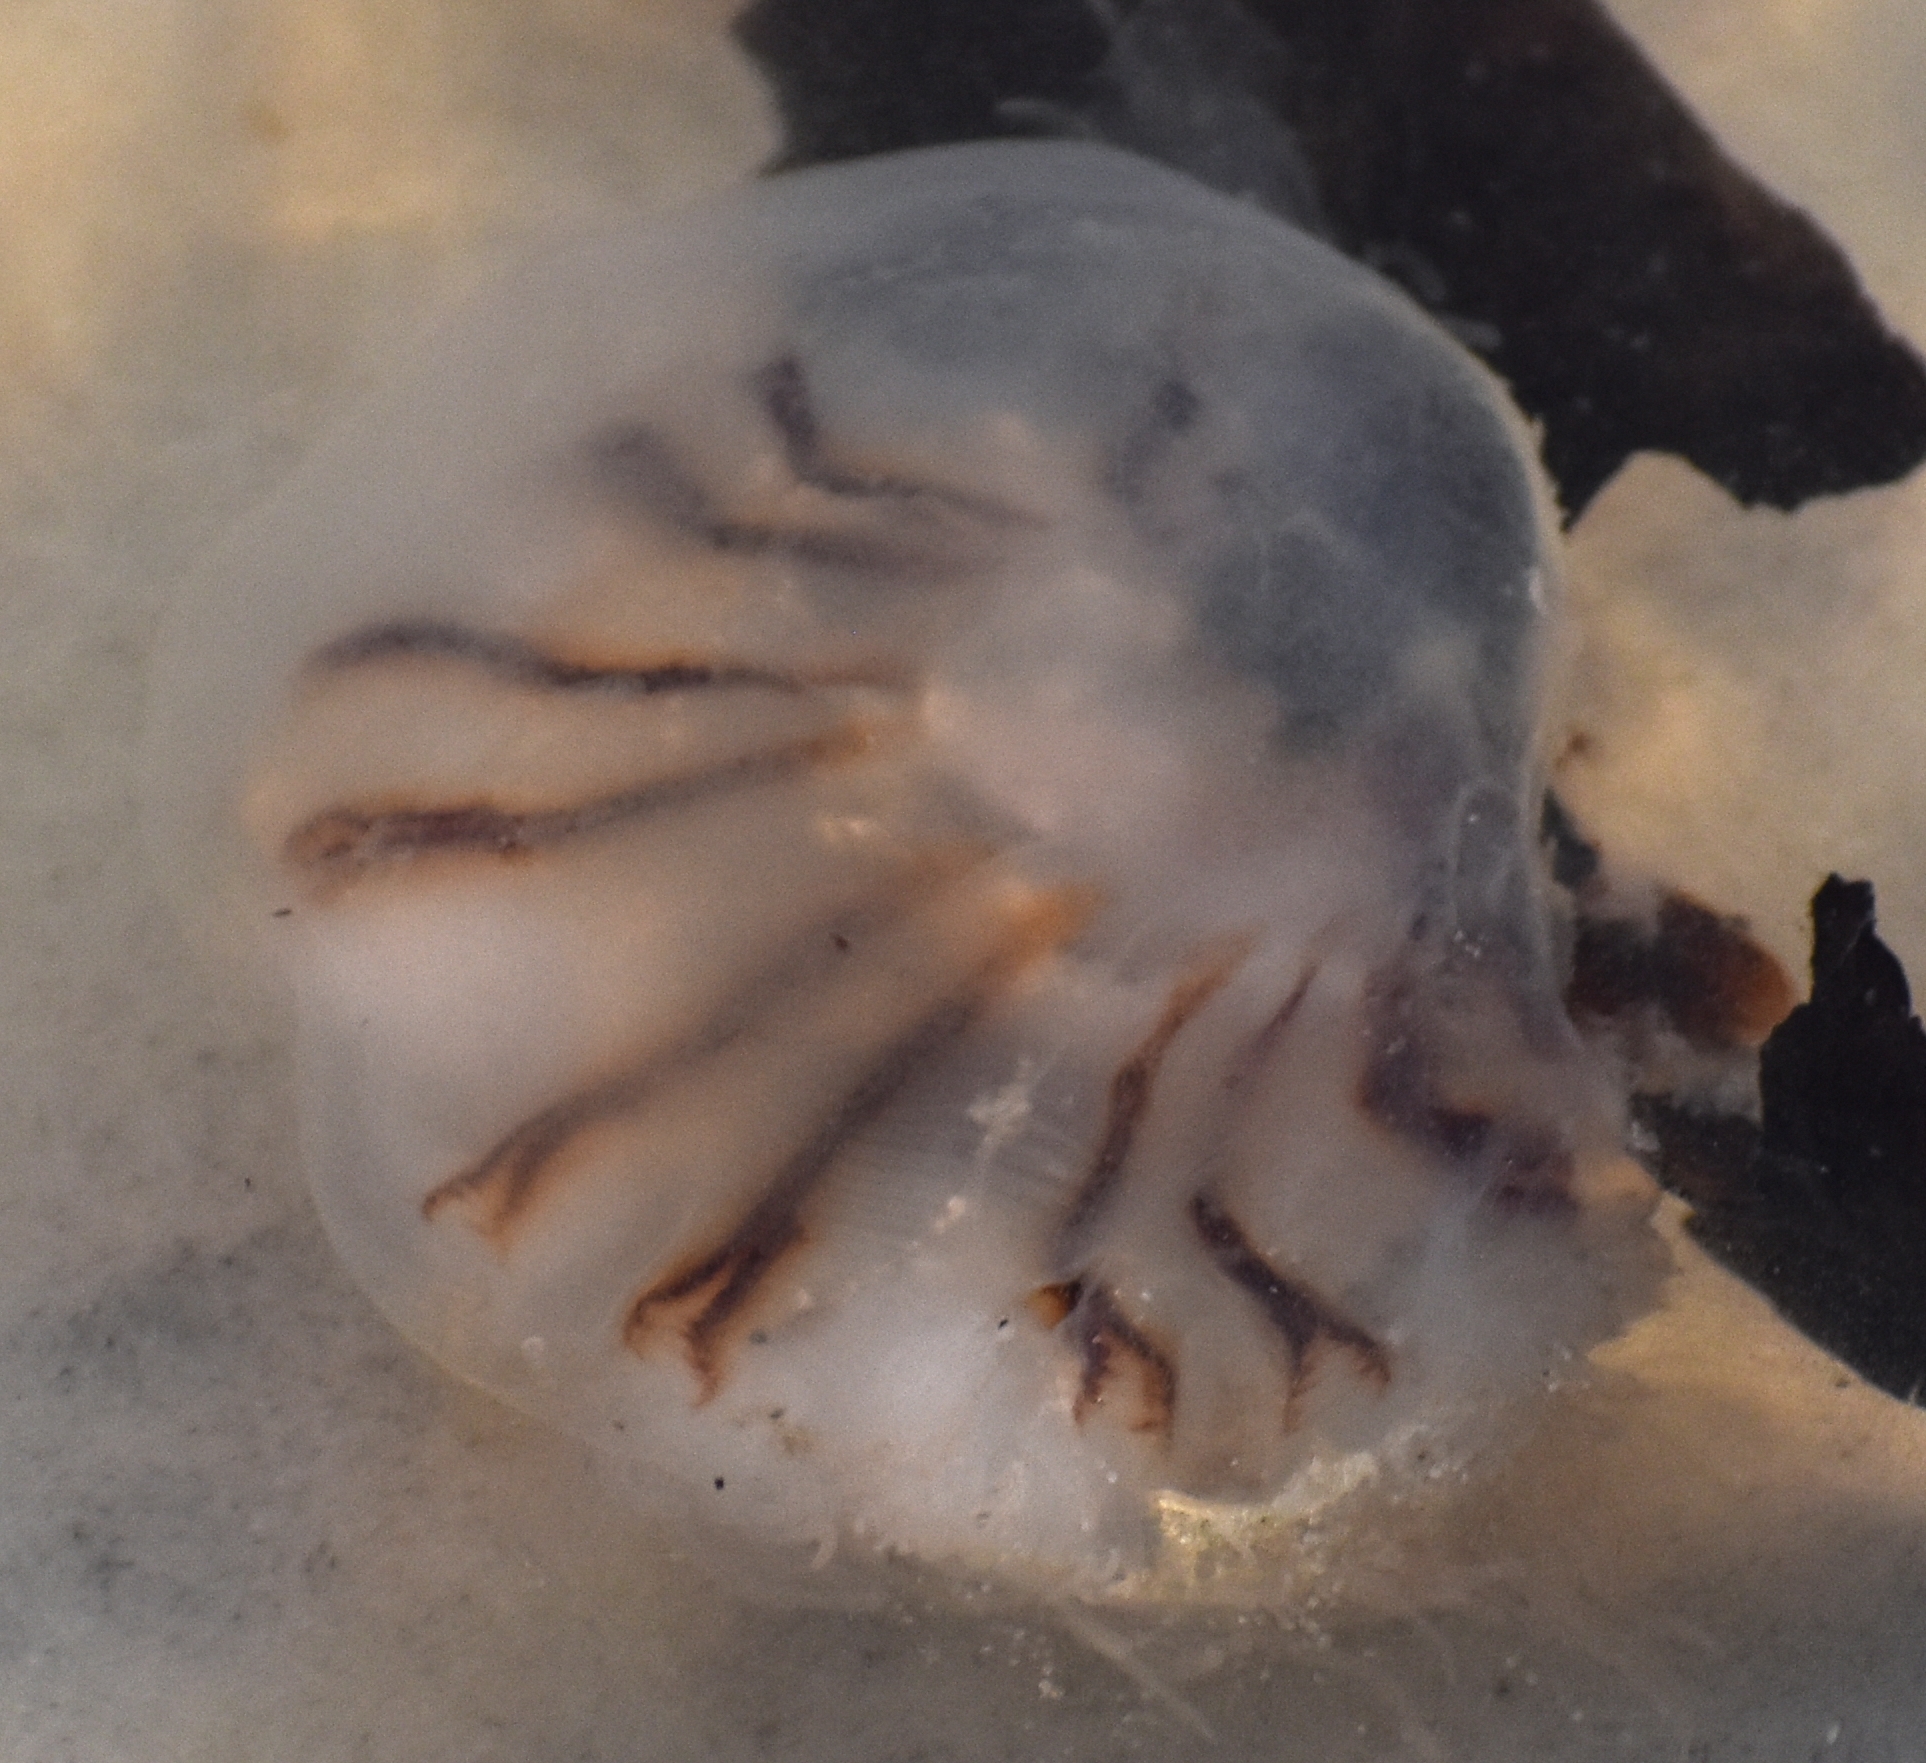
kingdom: Animalia
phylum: Cnidaria
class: Scyphozoa
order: Semaeostomeae
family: Cyaneidae
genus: Cyanea
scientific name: Cyanea versicolor
